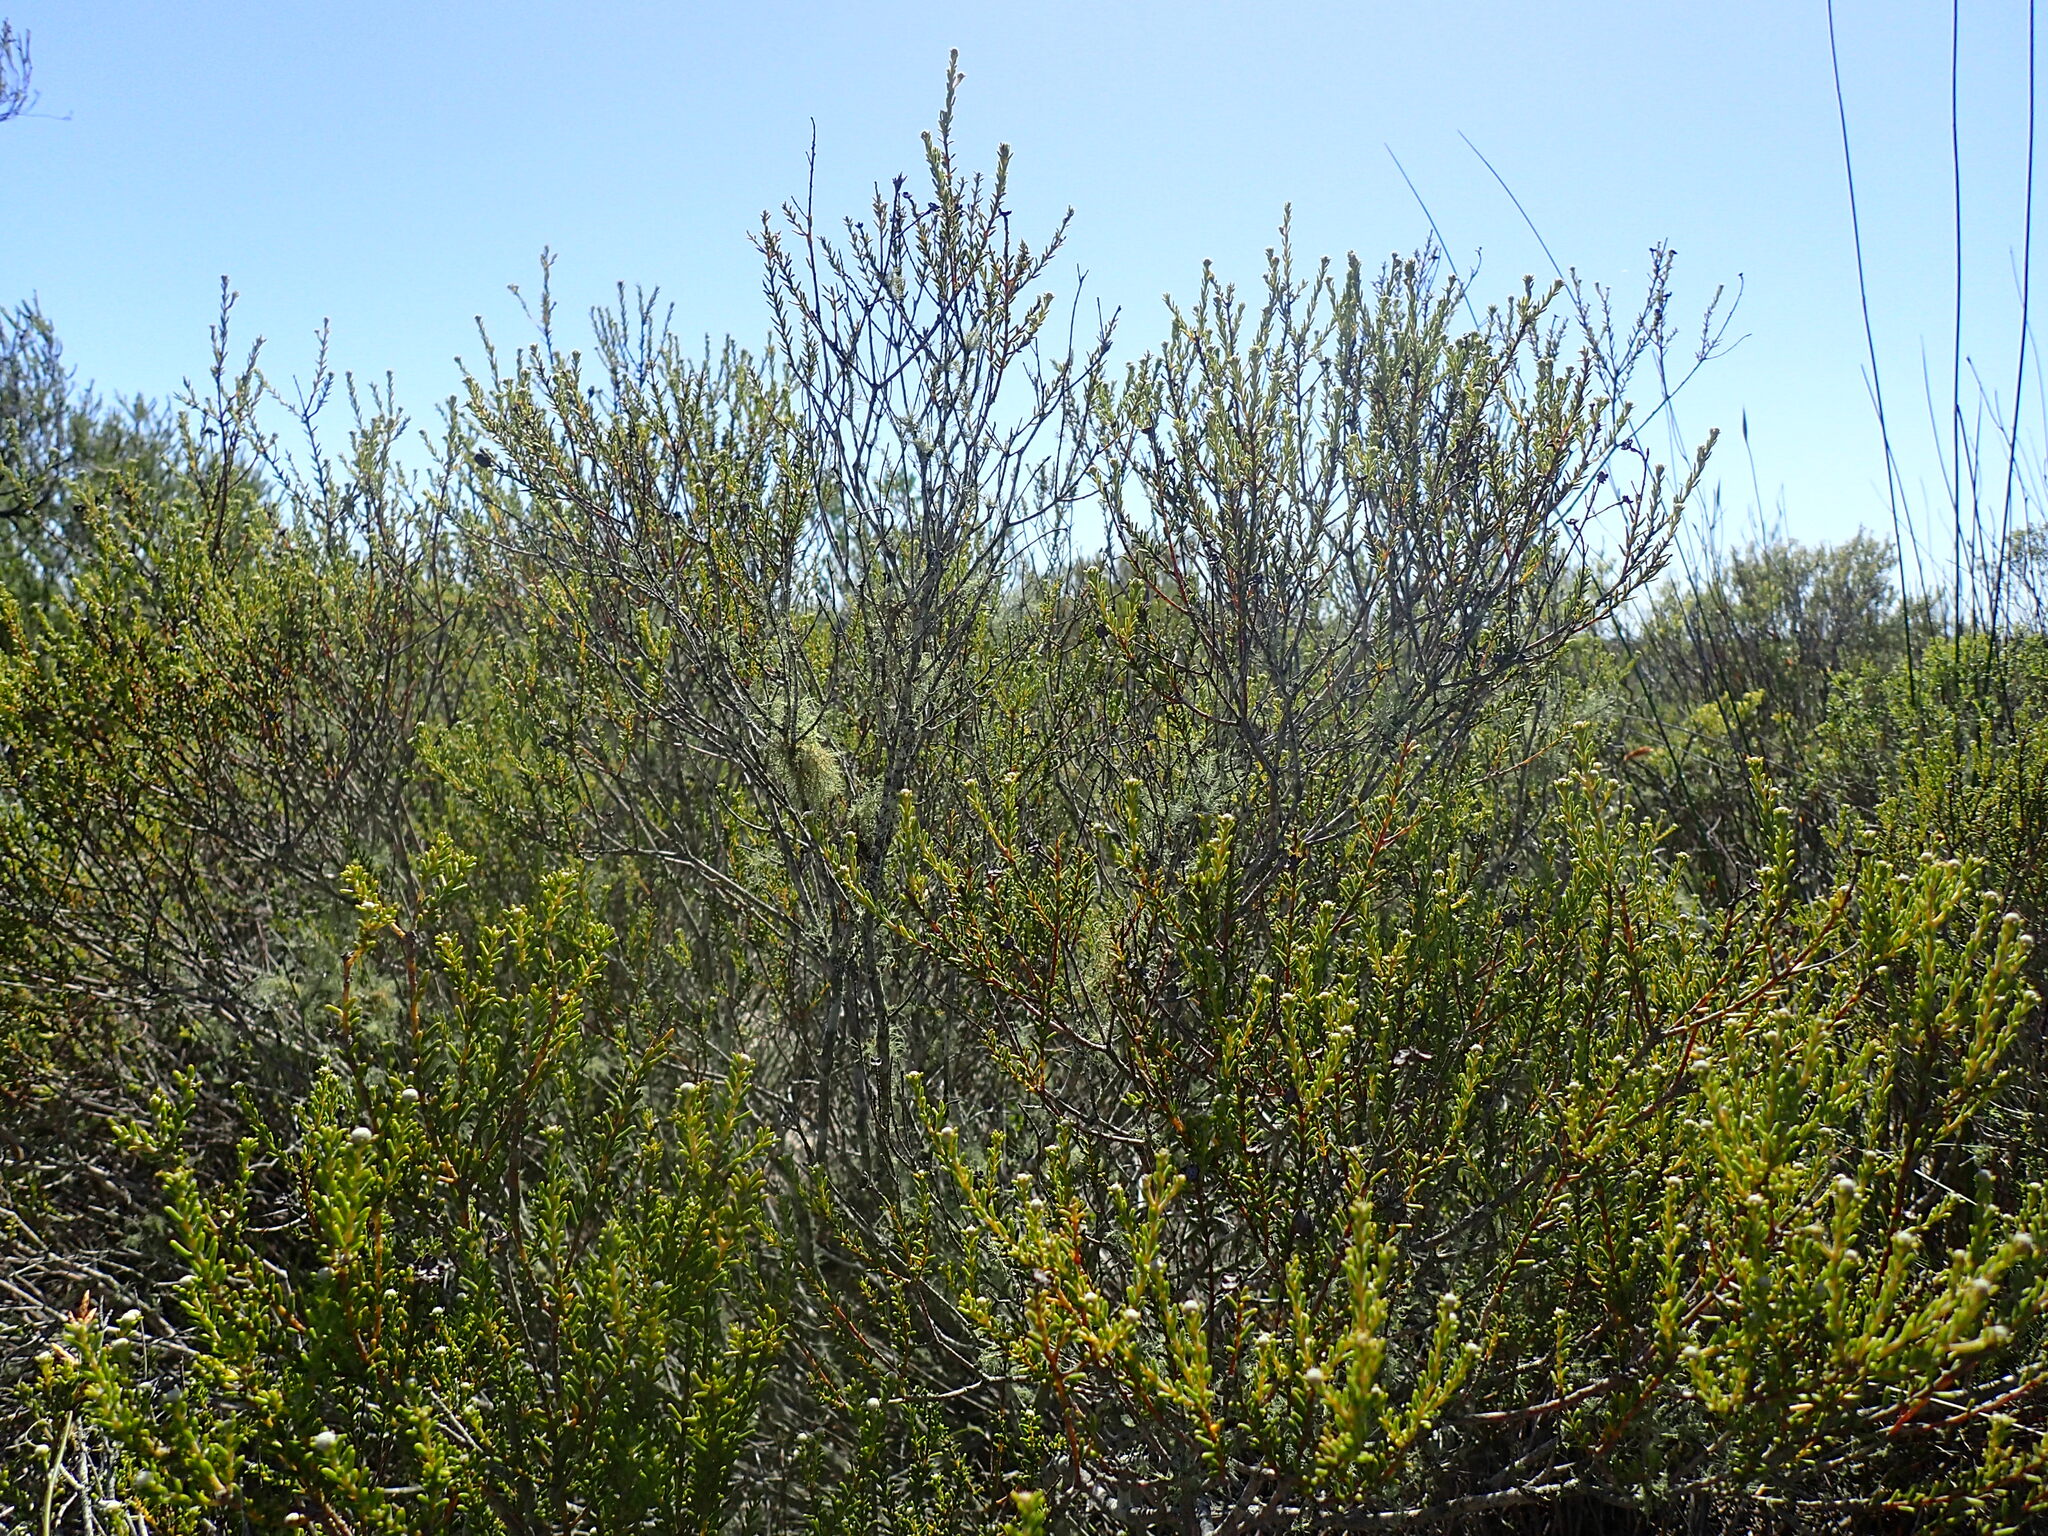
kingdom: Plantae
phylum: Tracheophyta
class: Magnoliopsida
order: Rosales
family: Rhamnaceae
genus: Phylica
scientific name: Phylica cephalantha
